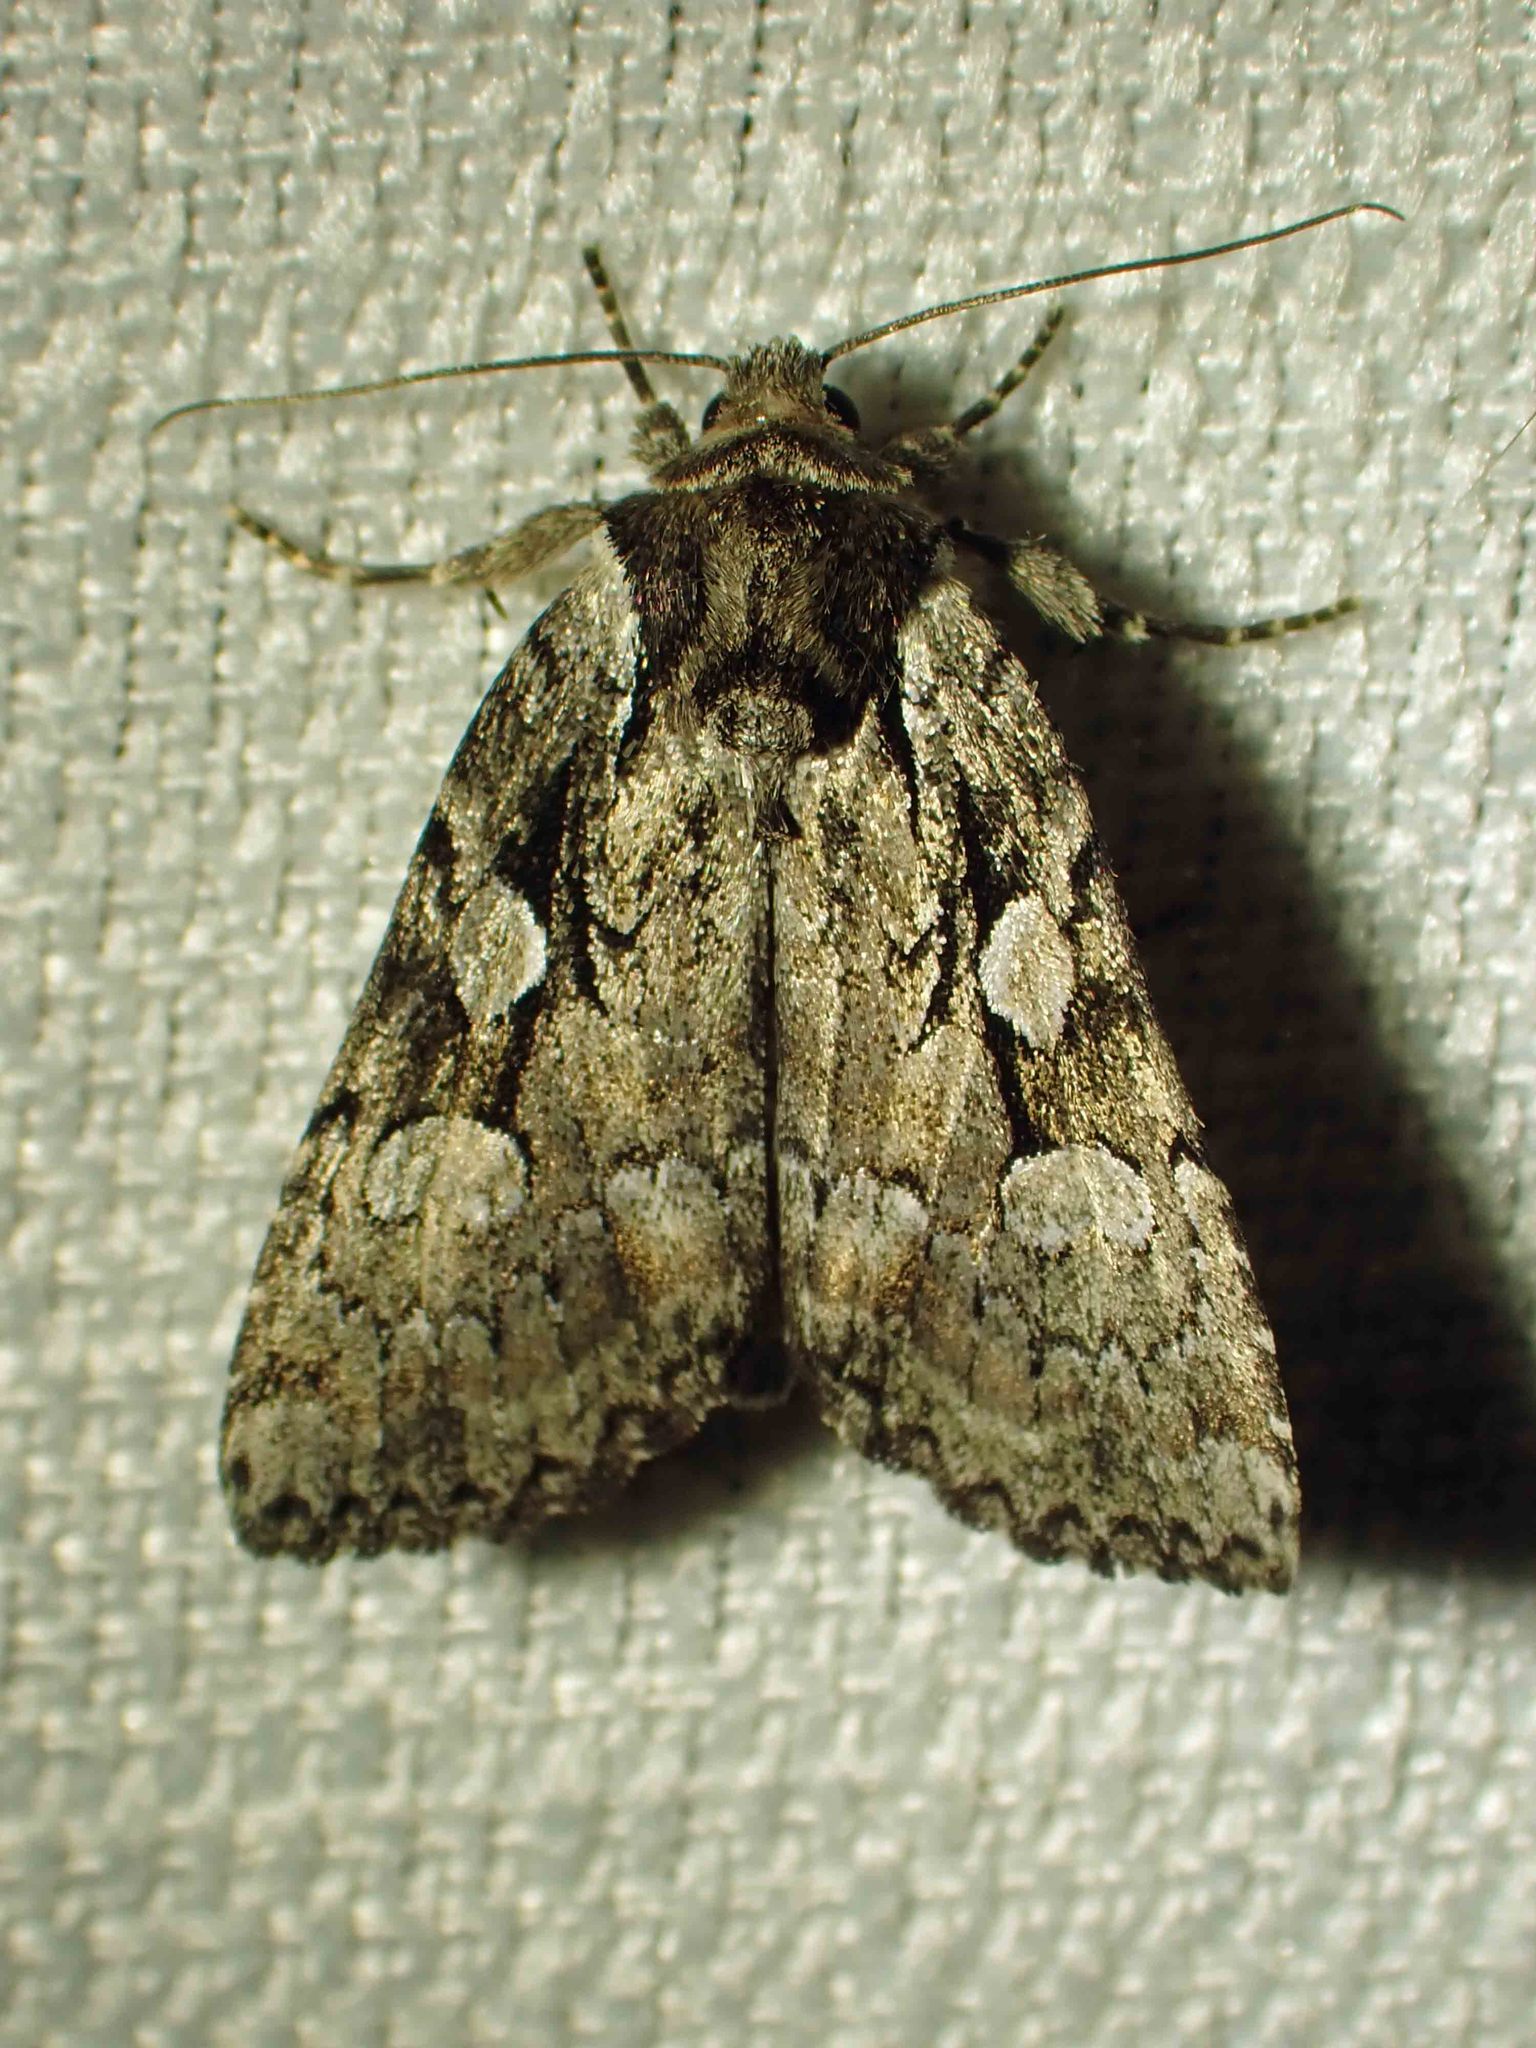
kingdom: Animalia
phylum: Arthropoda
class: Insecta
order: Lepidoptera
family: Noctuidae
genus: Aplectoides
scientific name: Aplectoides condita
